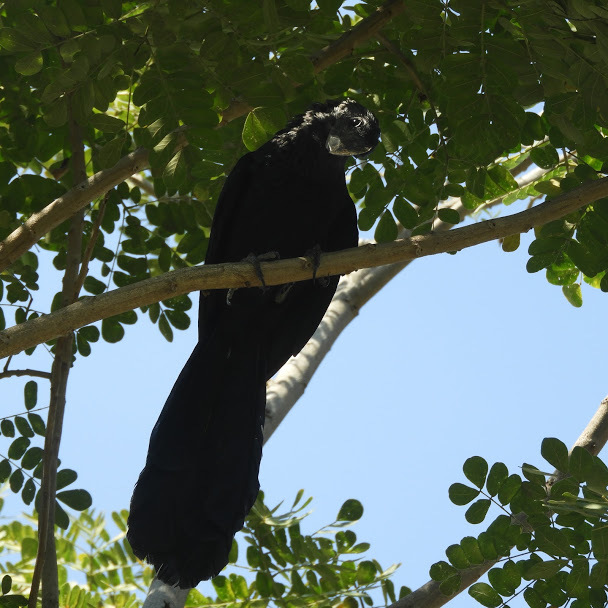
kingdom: Animalia
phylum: Chordata
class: Aves
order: Cuculiformes
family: Cuculidae
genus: Crotophaga
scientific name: Crotophaga ani
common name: Smooth-billed ani
